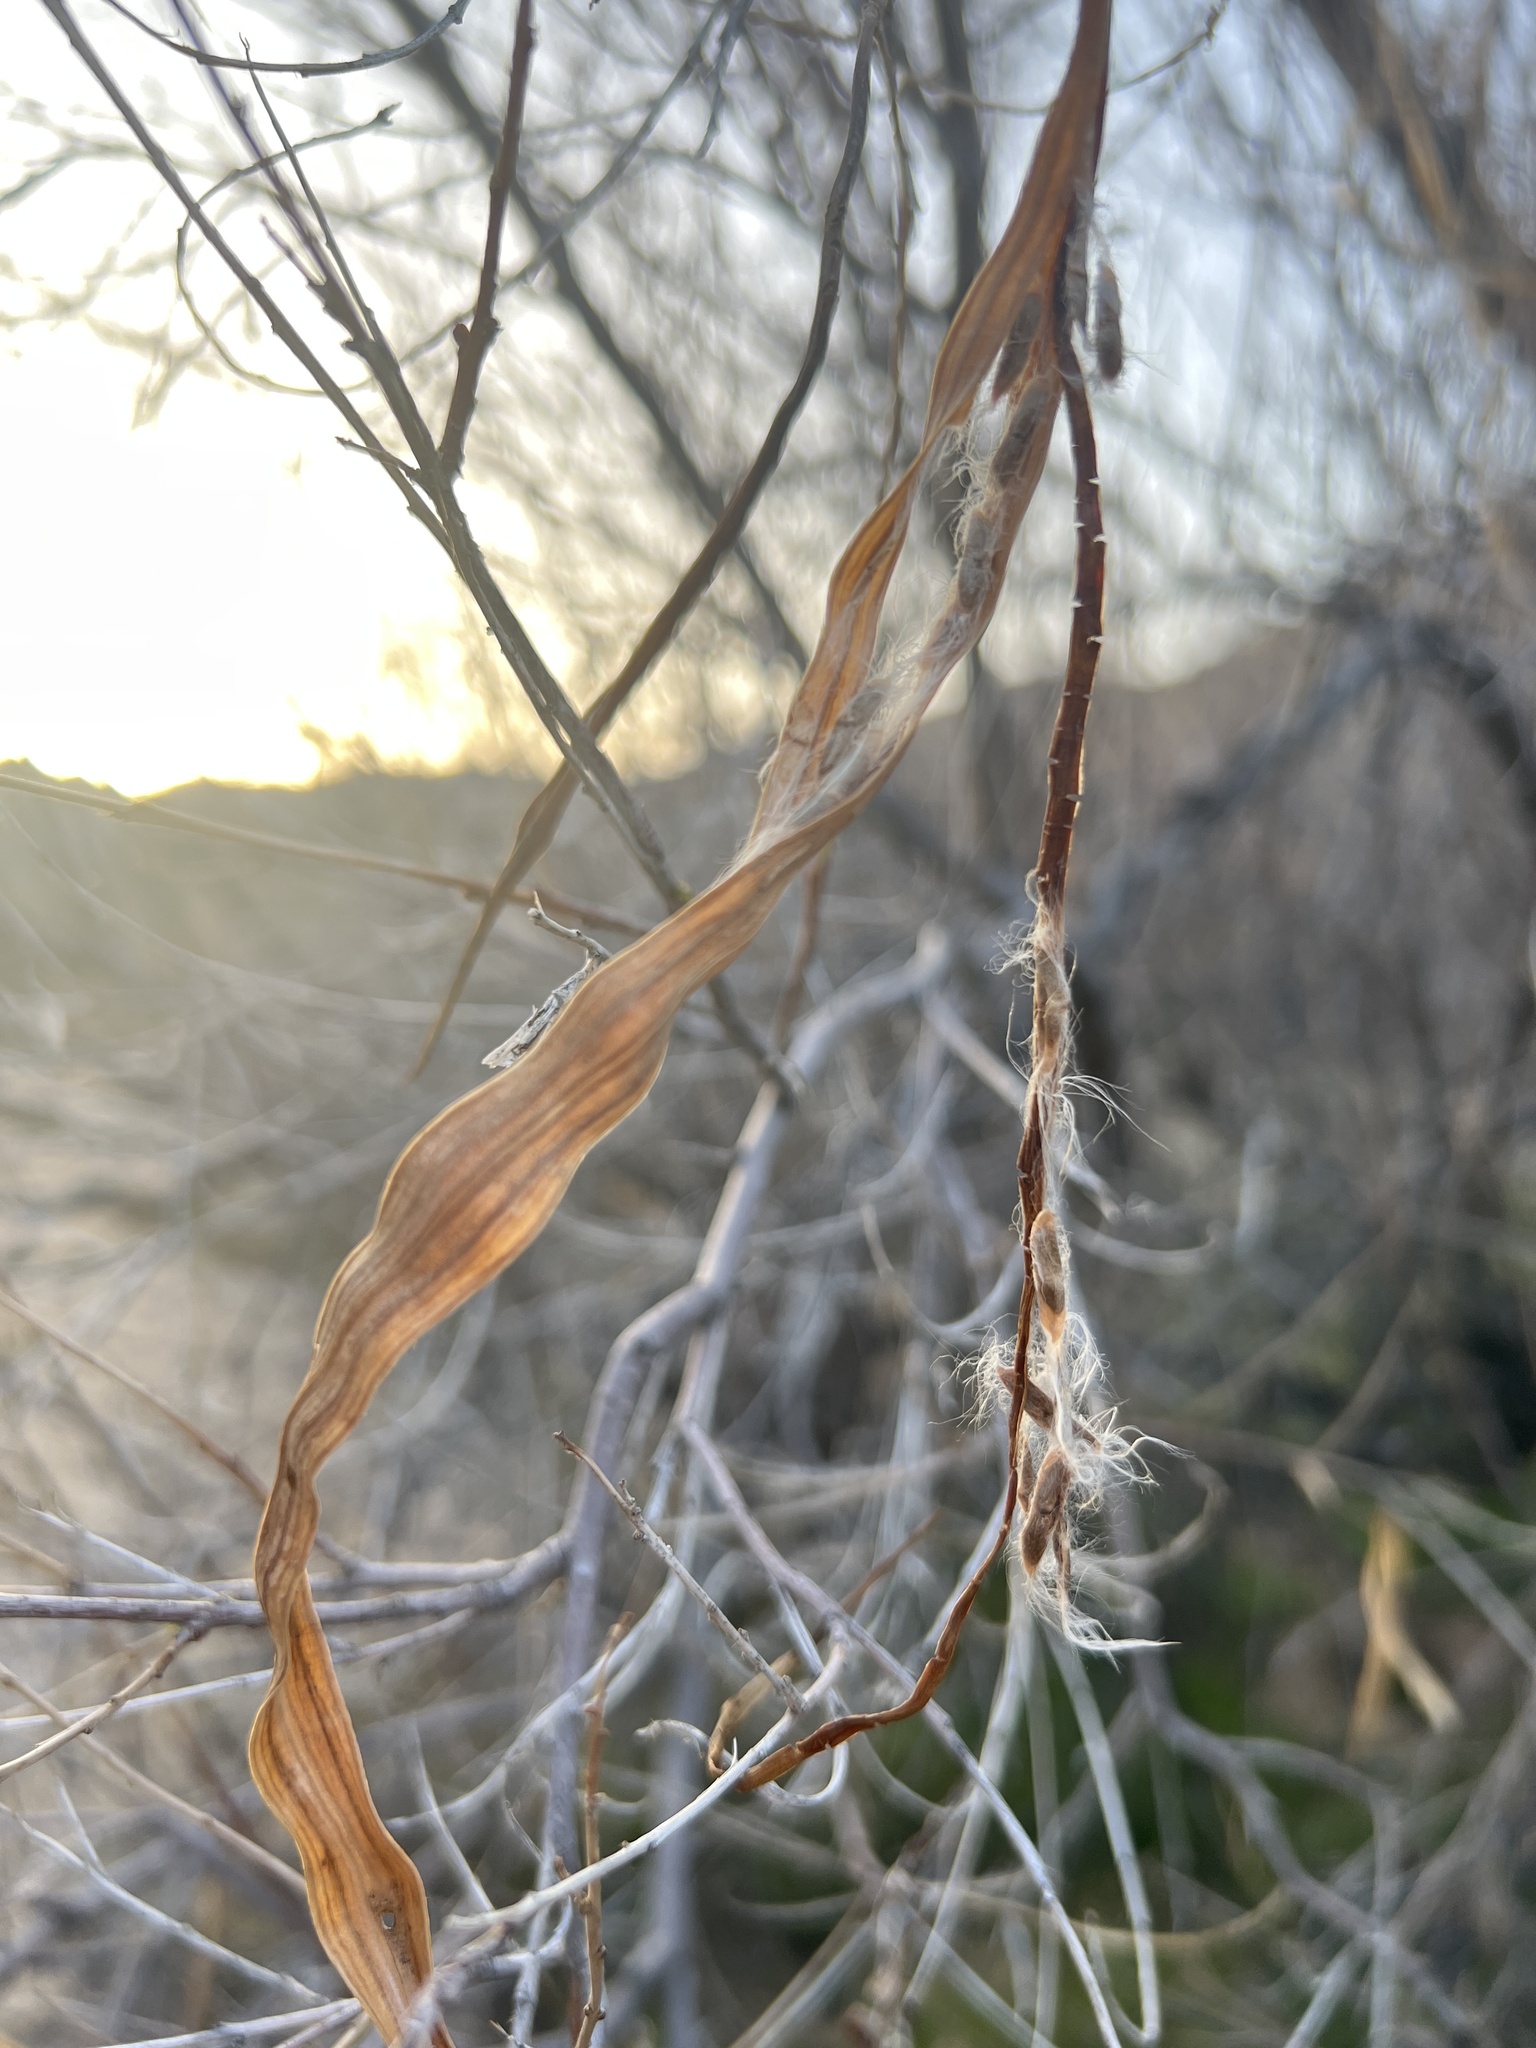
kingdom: Plantae
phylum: Tracheophyta
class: Magnoliopsida
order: Lamiales
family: Bignoniaceae
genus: Chilopsis
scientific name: Chilopsis linearis
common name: Desert-willow
